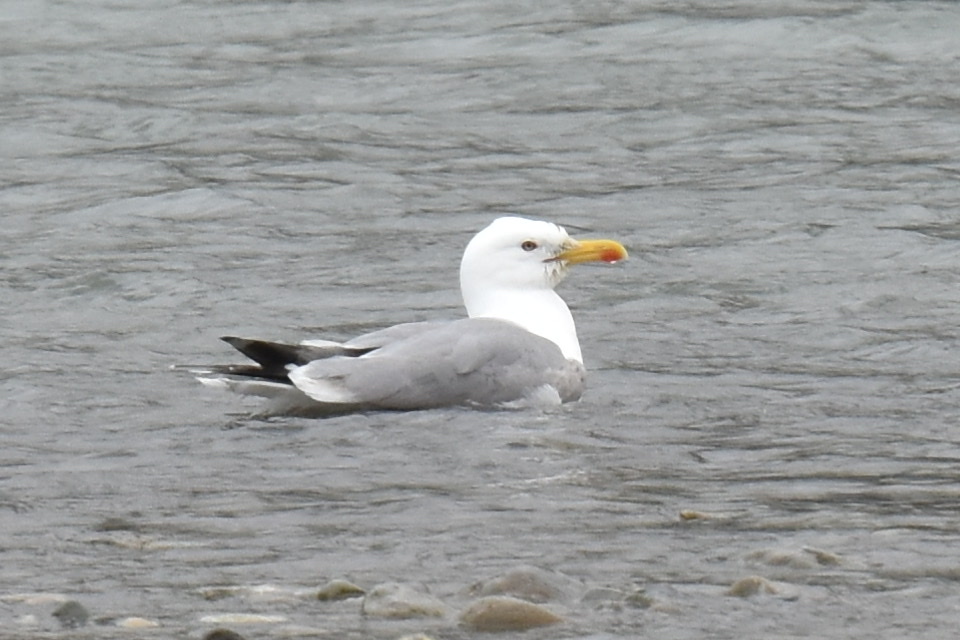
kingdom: Animalia
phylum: Chordata
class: Aves
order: Charadriiformes
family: Laridae
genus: Larus
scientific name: Larus michahellis
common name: Yellow-legged gull
